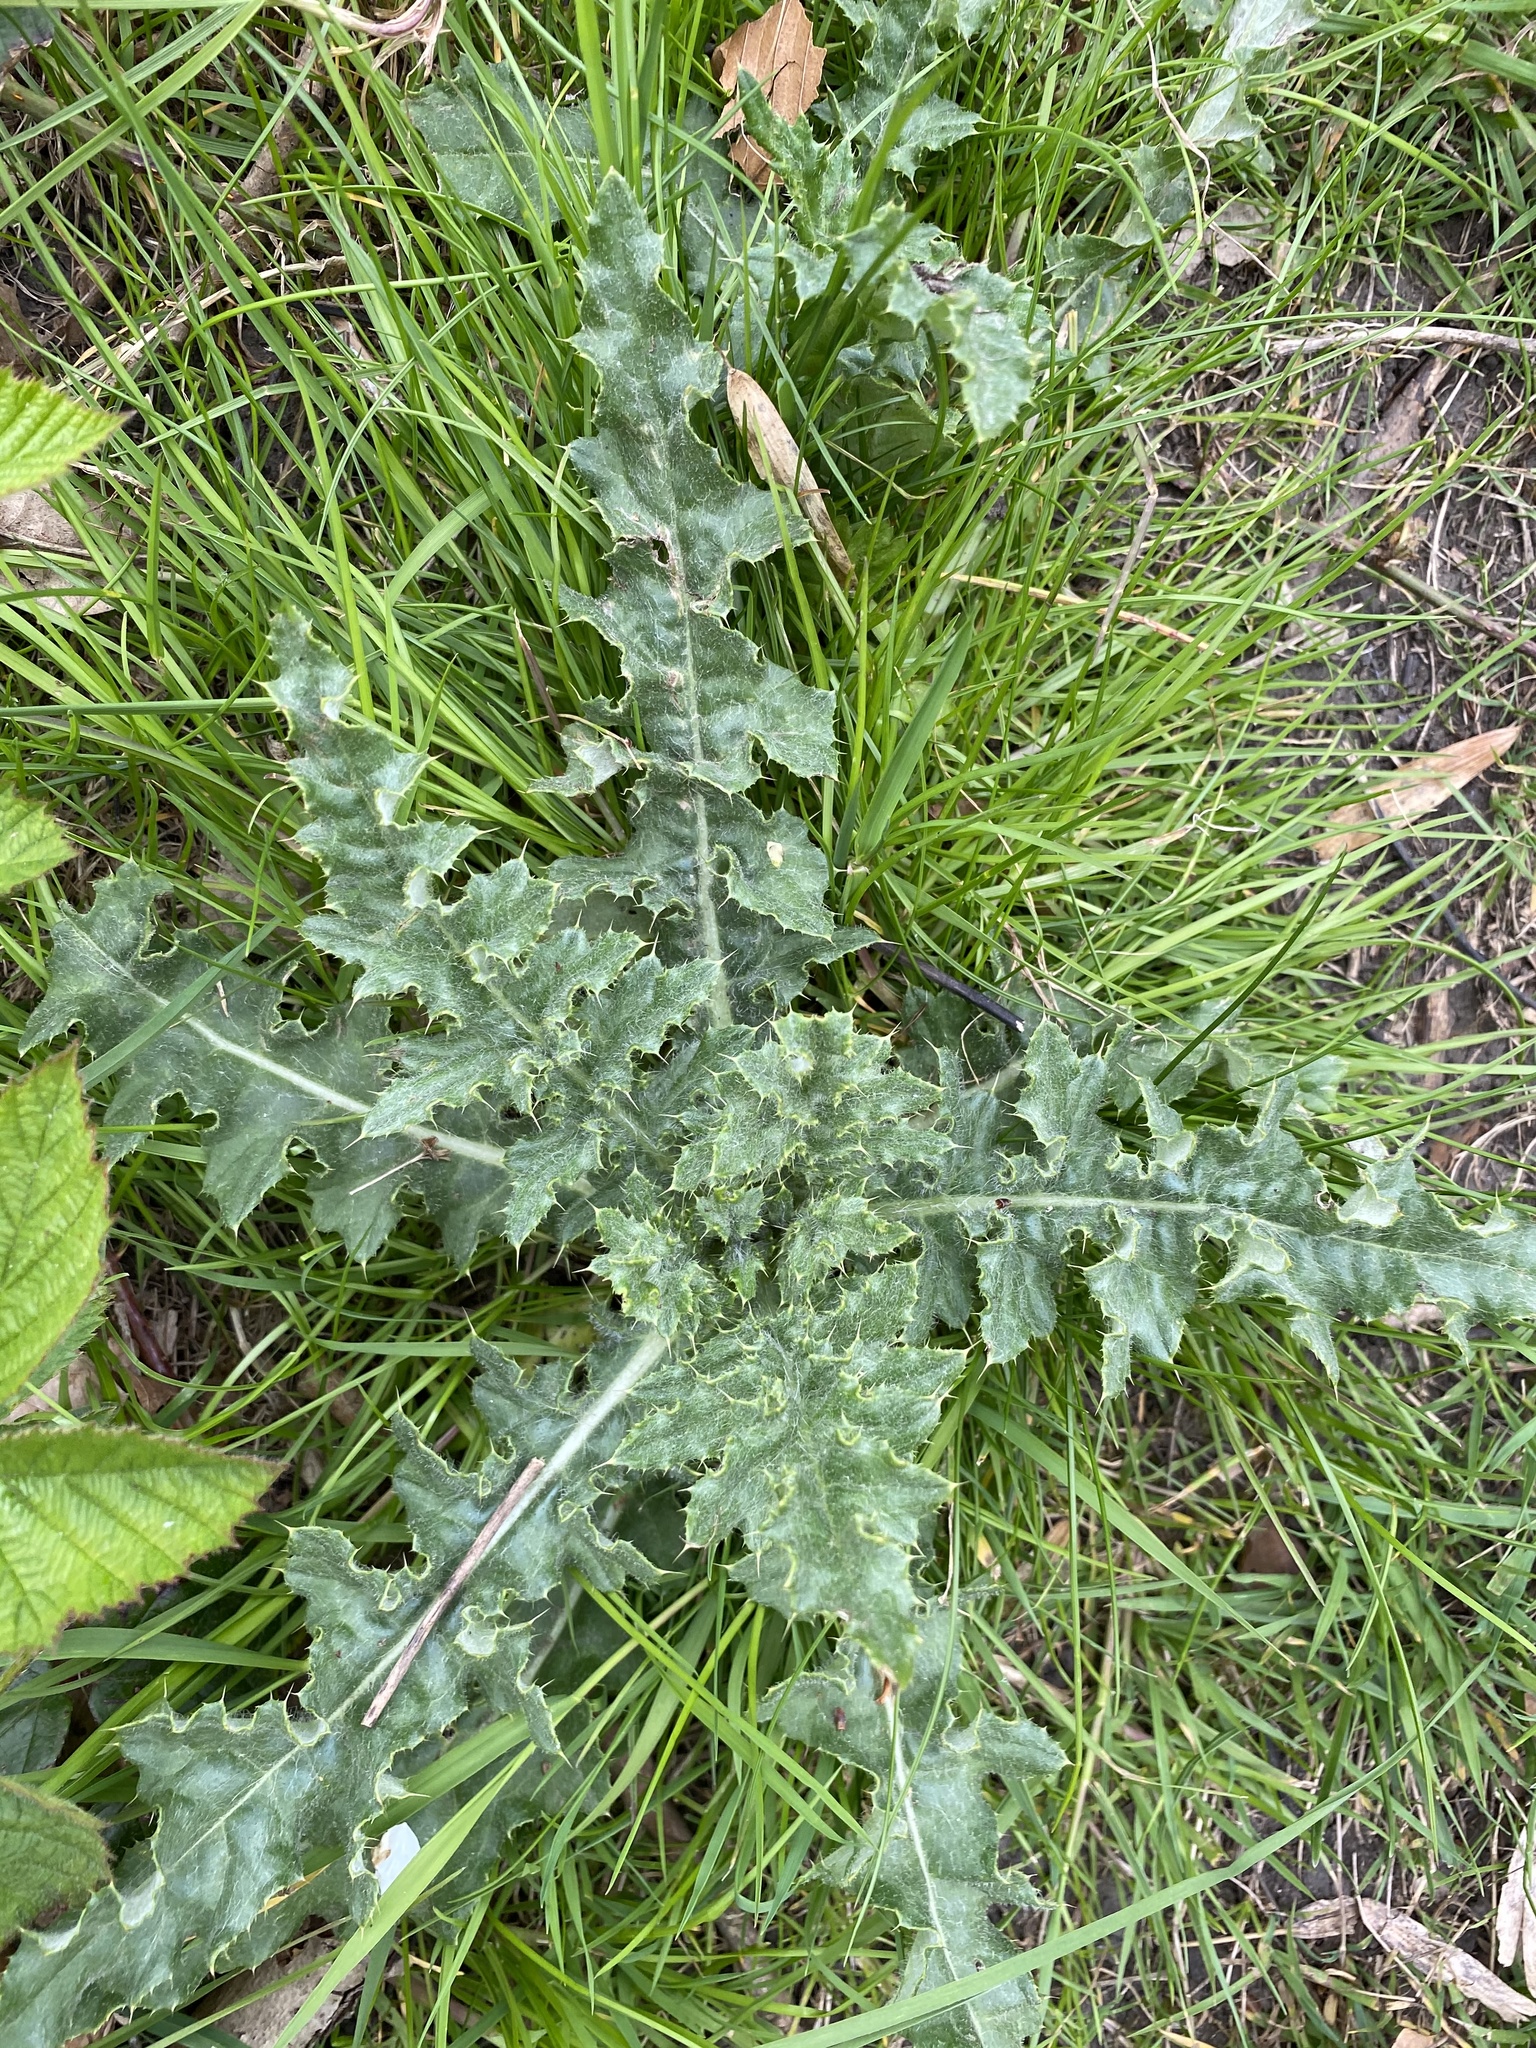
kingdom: Plantae
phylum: Tracheophyta
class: Magnoliopsida
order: Asterales
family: Asteraceae
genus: Cirsium
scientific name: Cirsium arvense
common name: Creeping thistle
